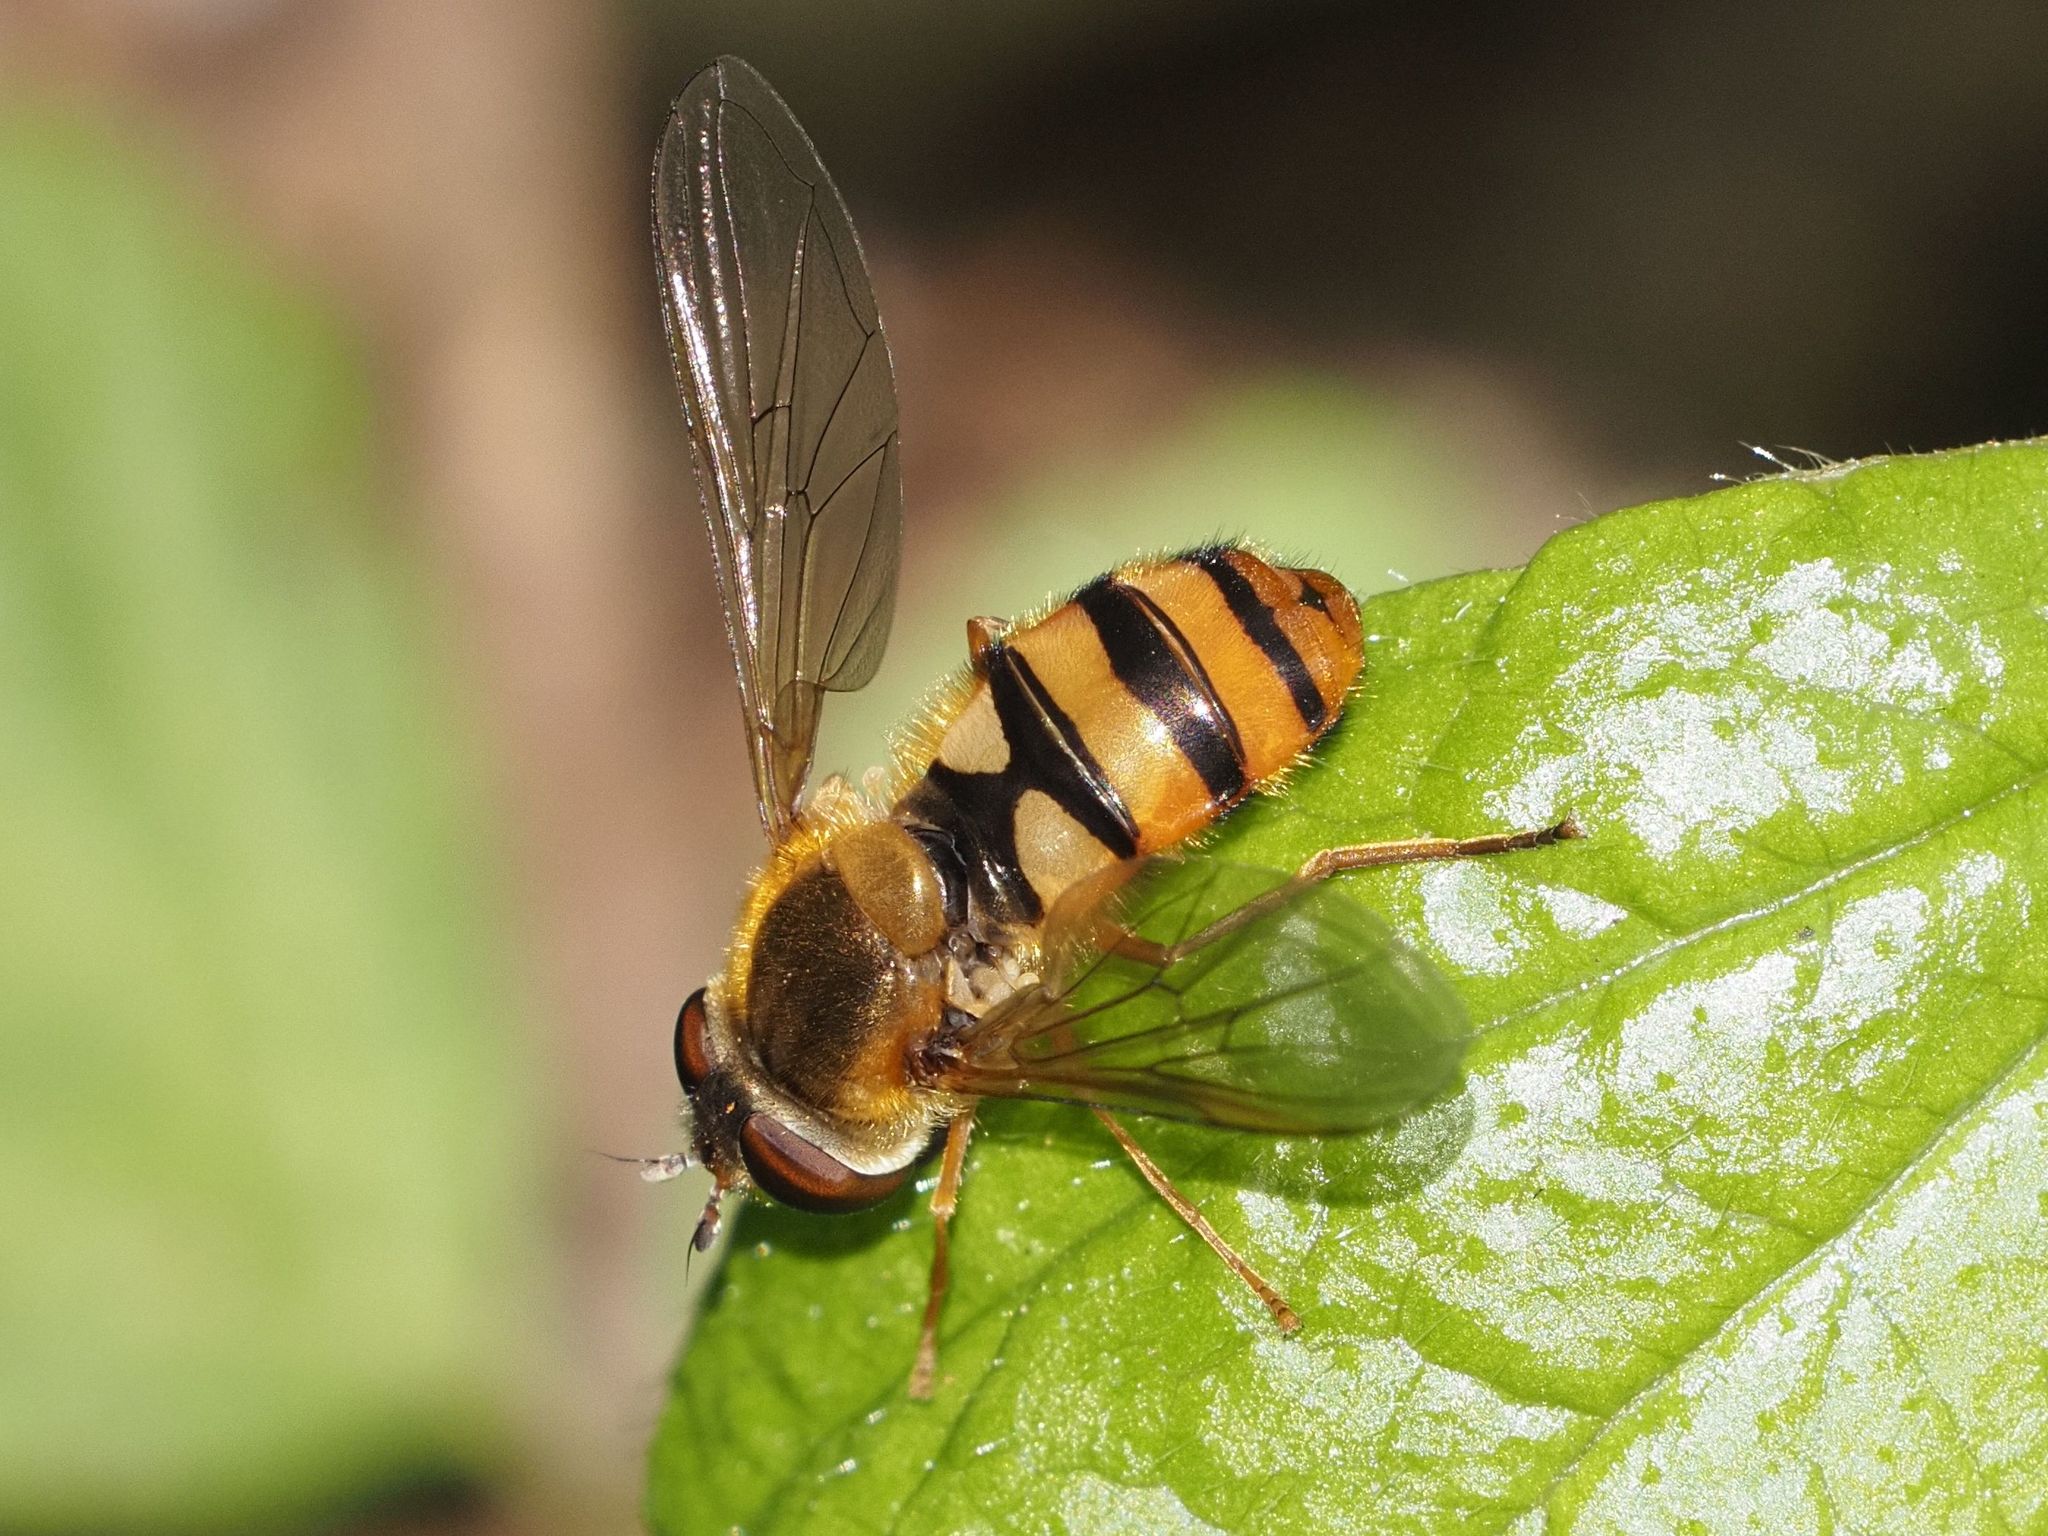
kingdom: Animalia
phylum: Arthropoda
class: Insecta
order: Diptera
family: Syrphidae
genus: Epistrophe
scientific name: Epistrophe nitidicollis
